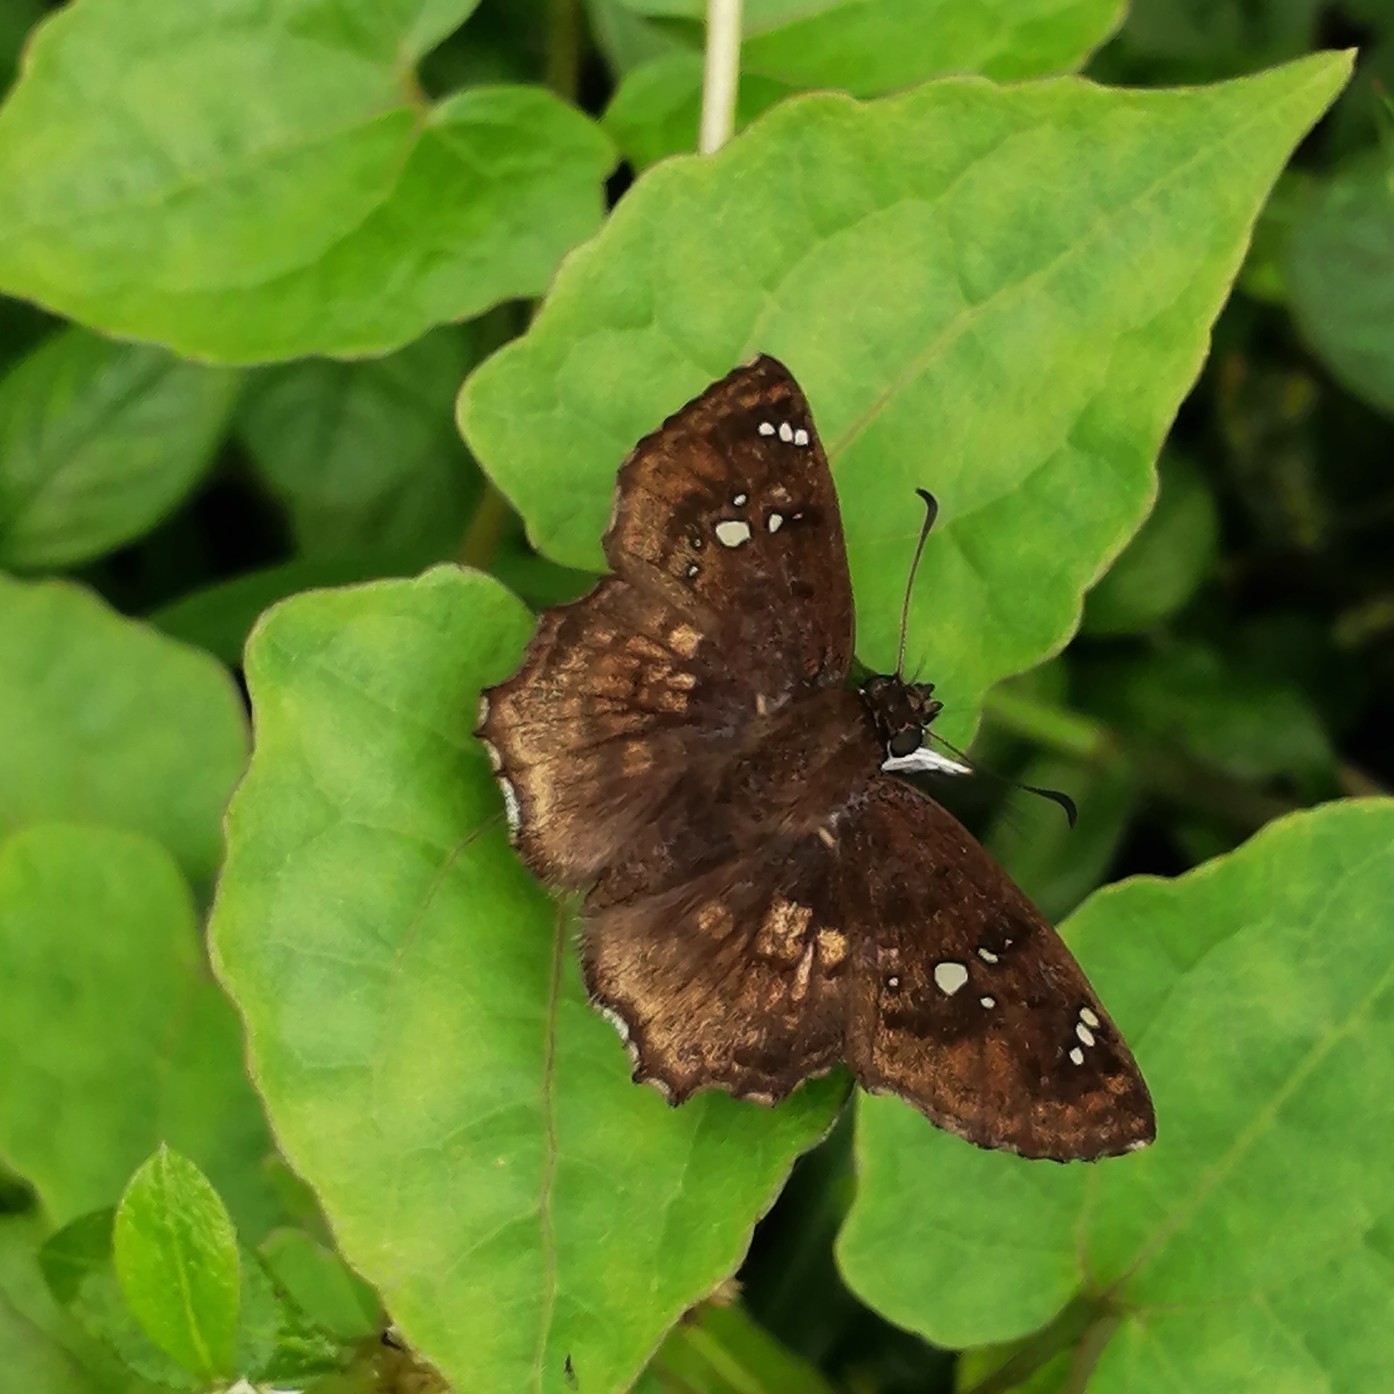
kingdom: Animalia
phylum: Arthropoda
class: Insecta
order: Lepidoptera
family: Hesperiidae
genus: Tapena
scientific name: Tapena thwaitesi
